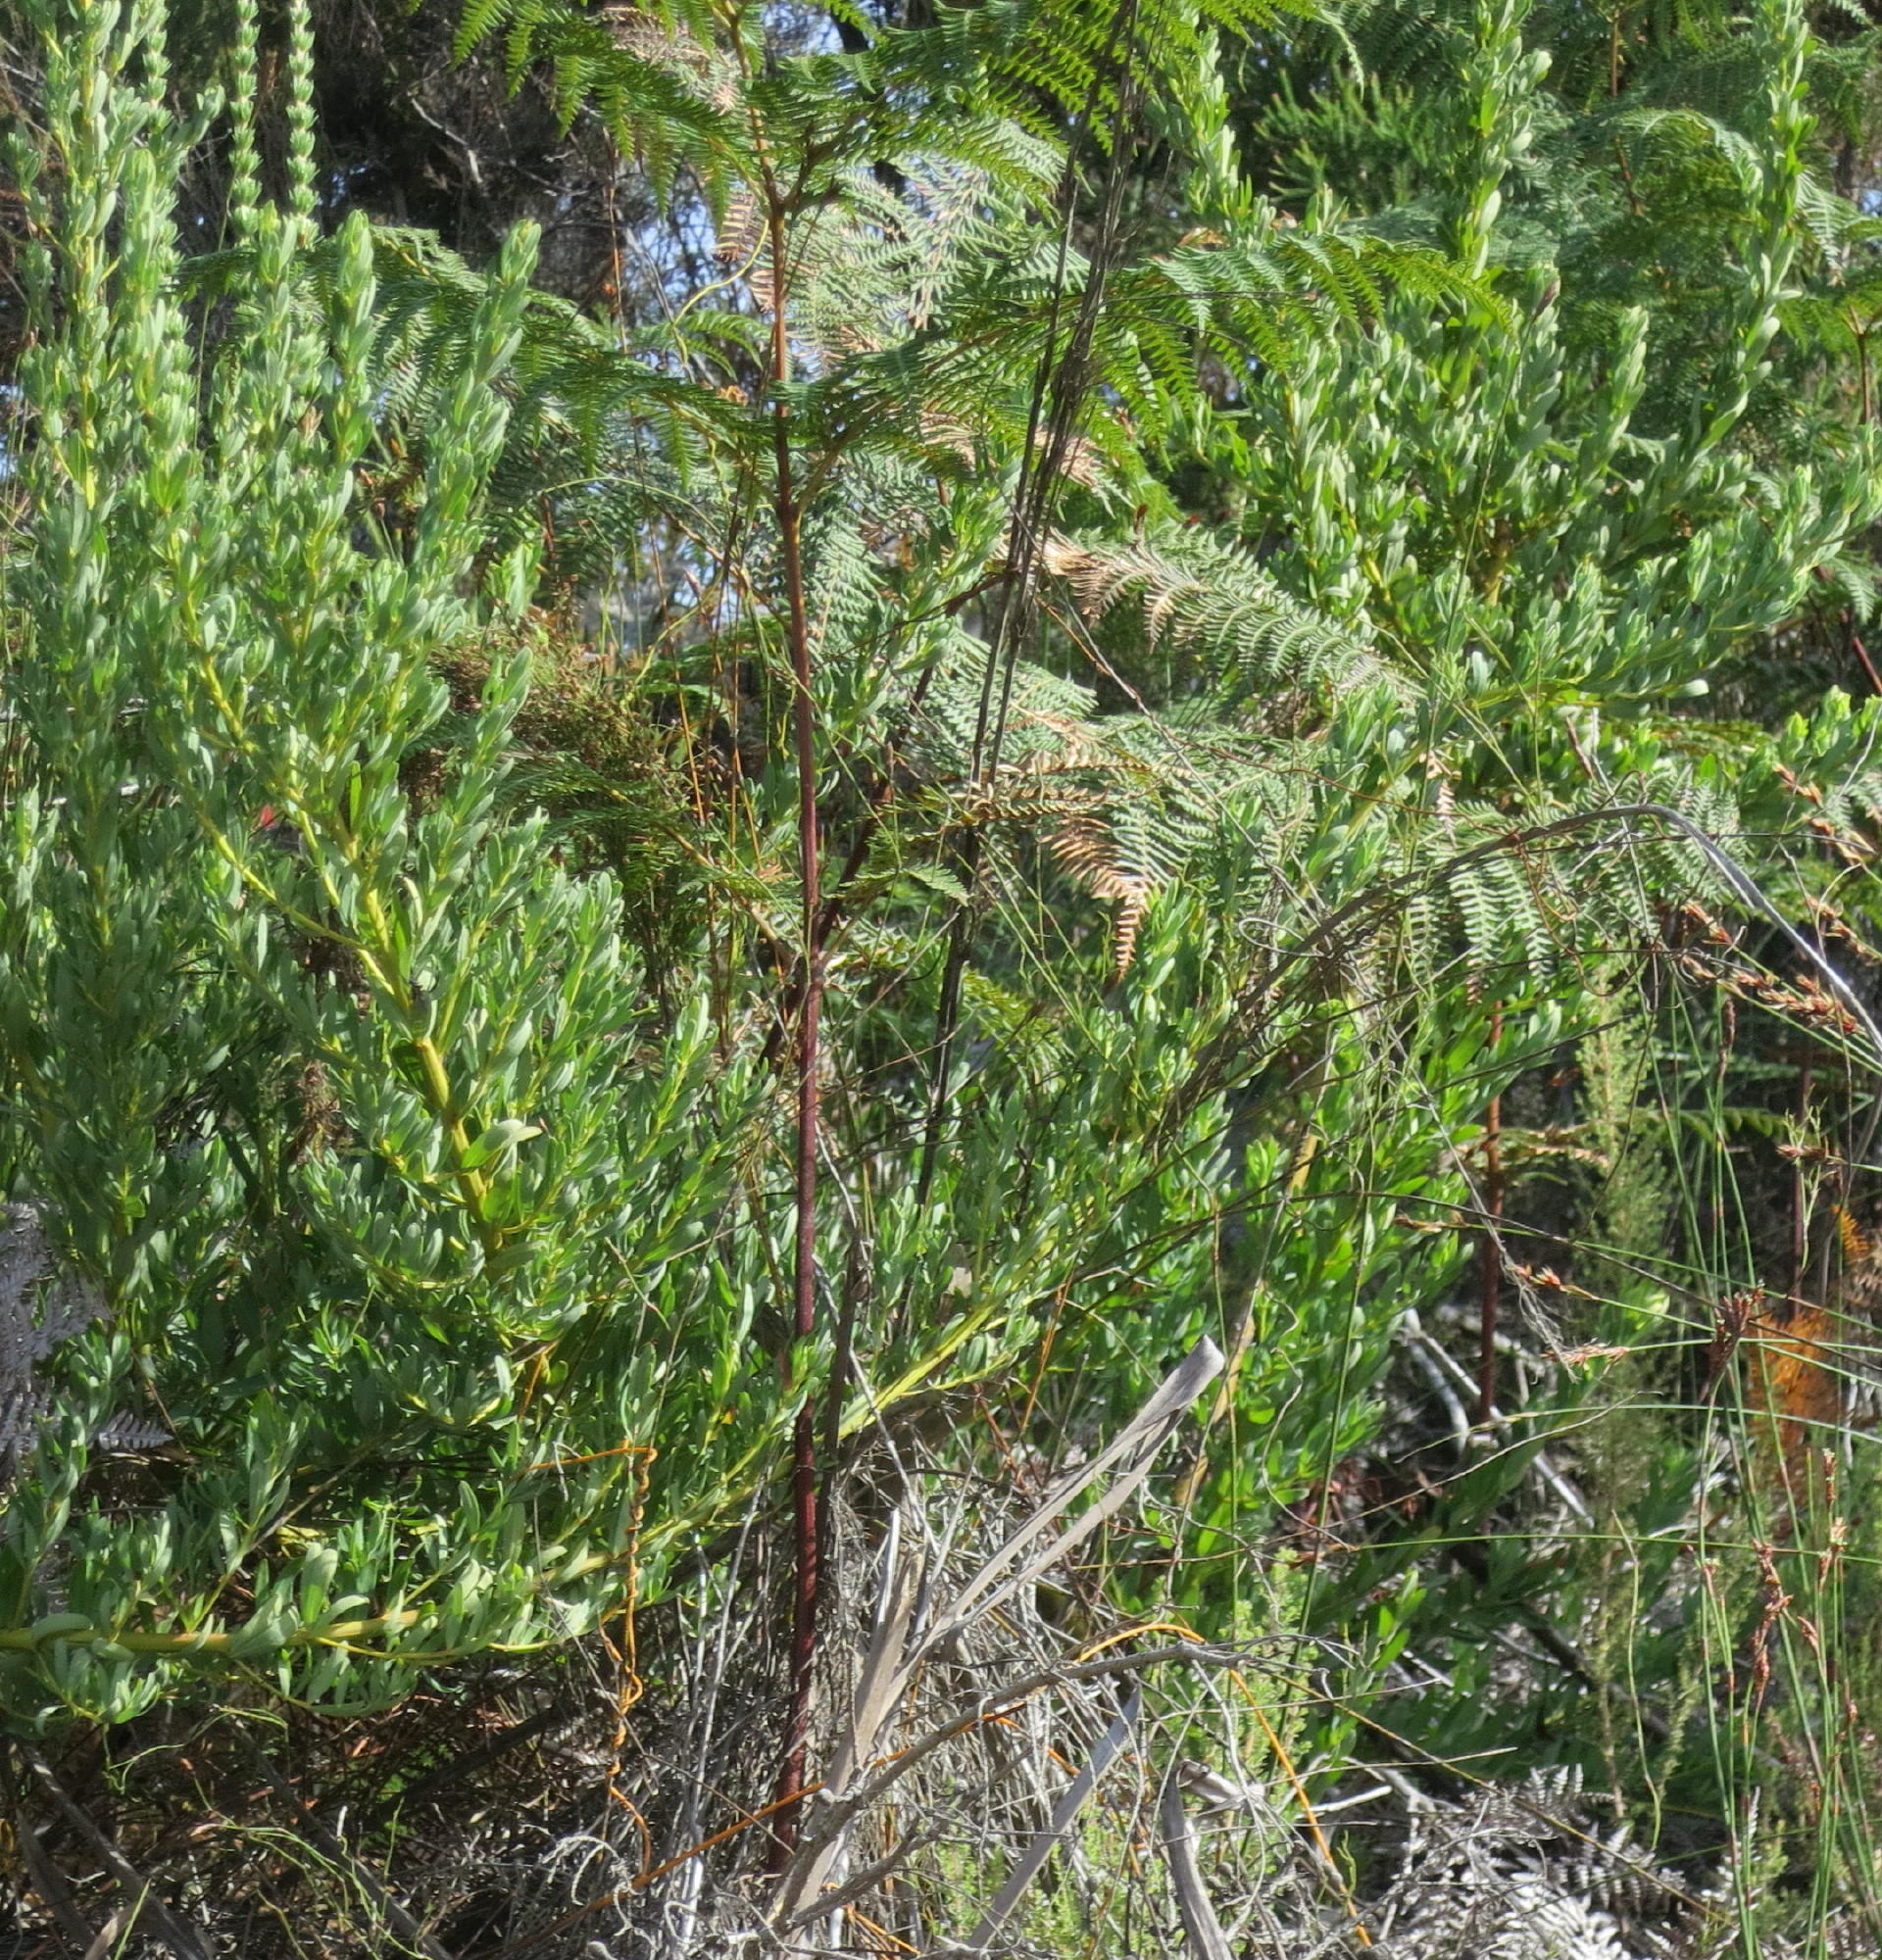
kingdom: Plantae
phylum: Tracheophyta
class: Magnoliopsida
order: Fabales
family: Fabaceae
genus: Cyclopia
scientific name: Cyclopia subternata
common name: Honeybush tea
